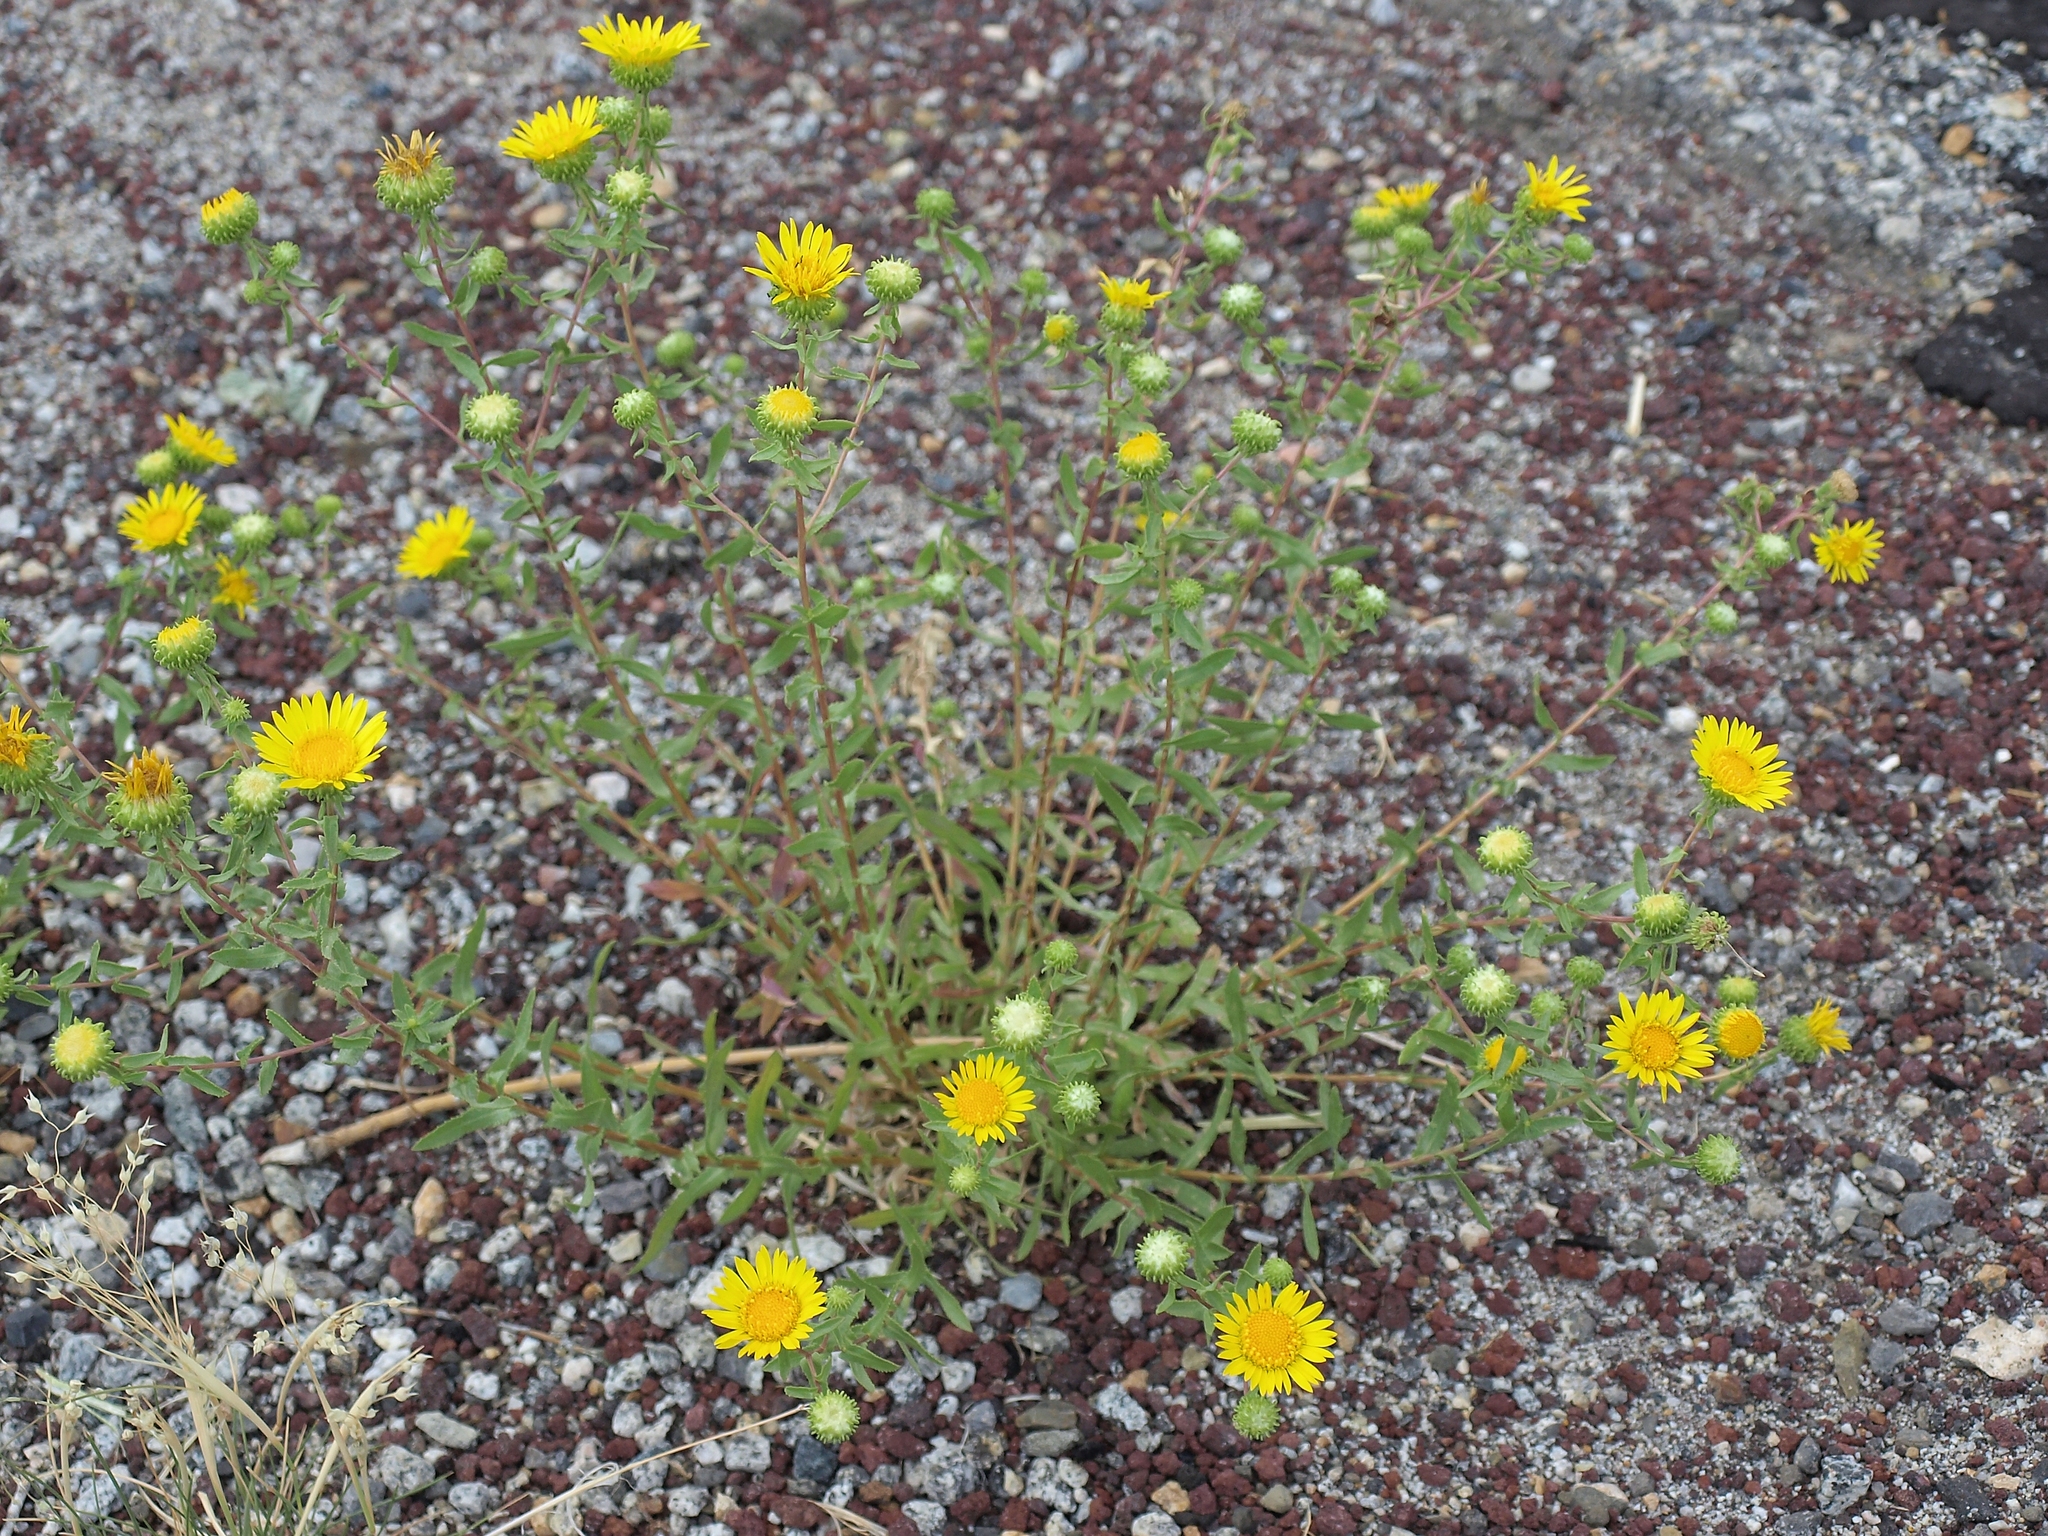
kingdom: Plantae
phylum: Tracheophyta
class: Magnoliopsida
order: Asterales
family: Asteraceae
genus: Grindelia
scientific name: Grindelia squarrosa
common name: Curly-cup gumweed
